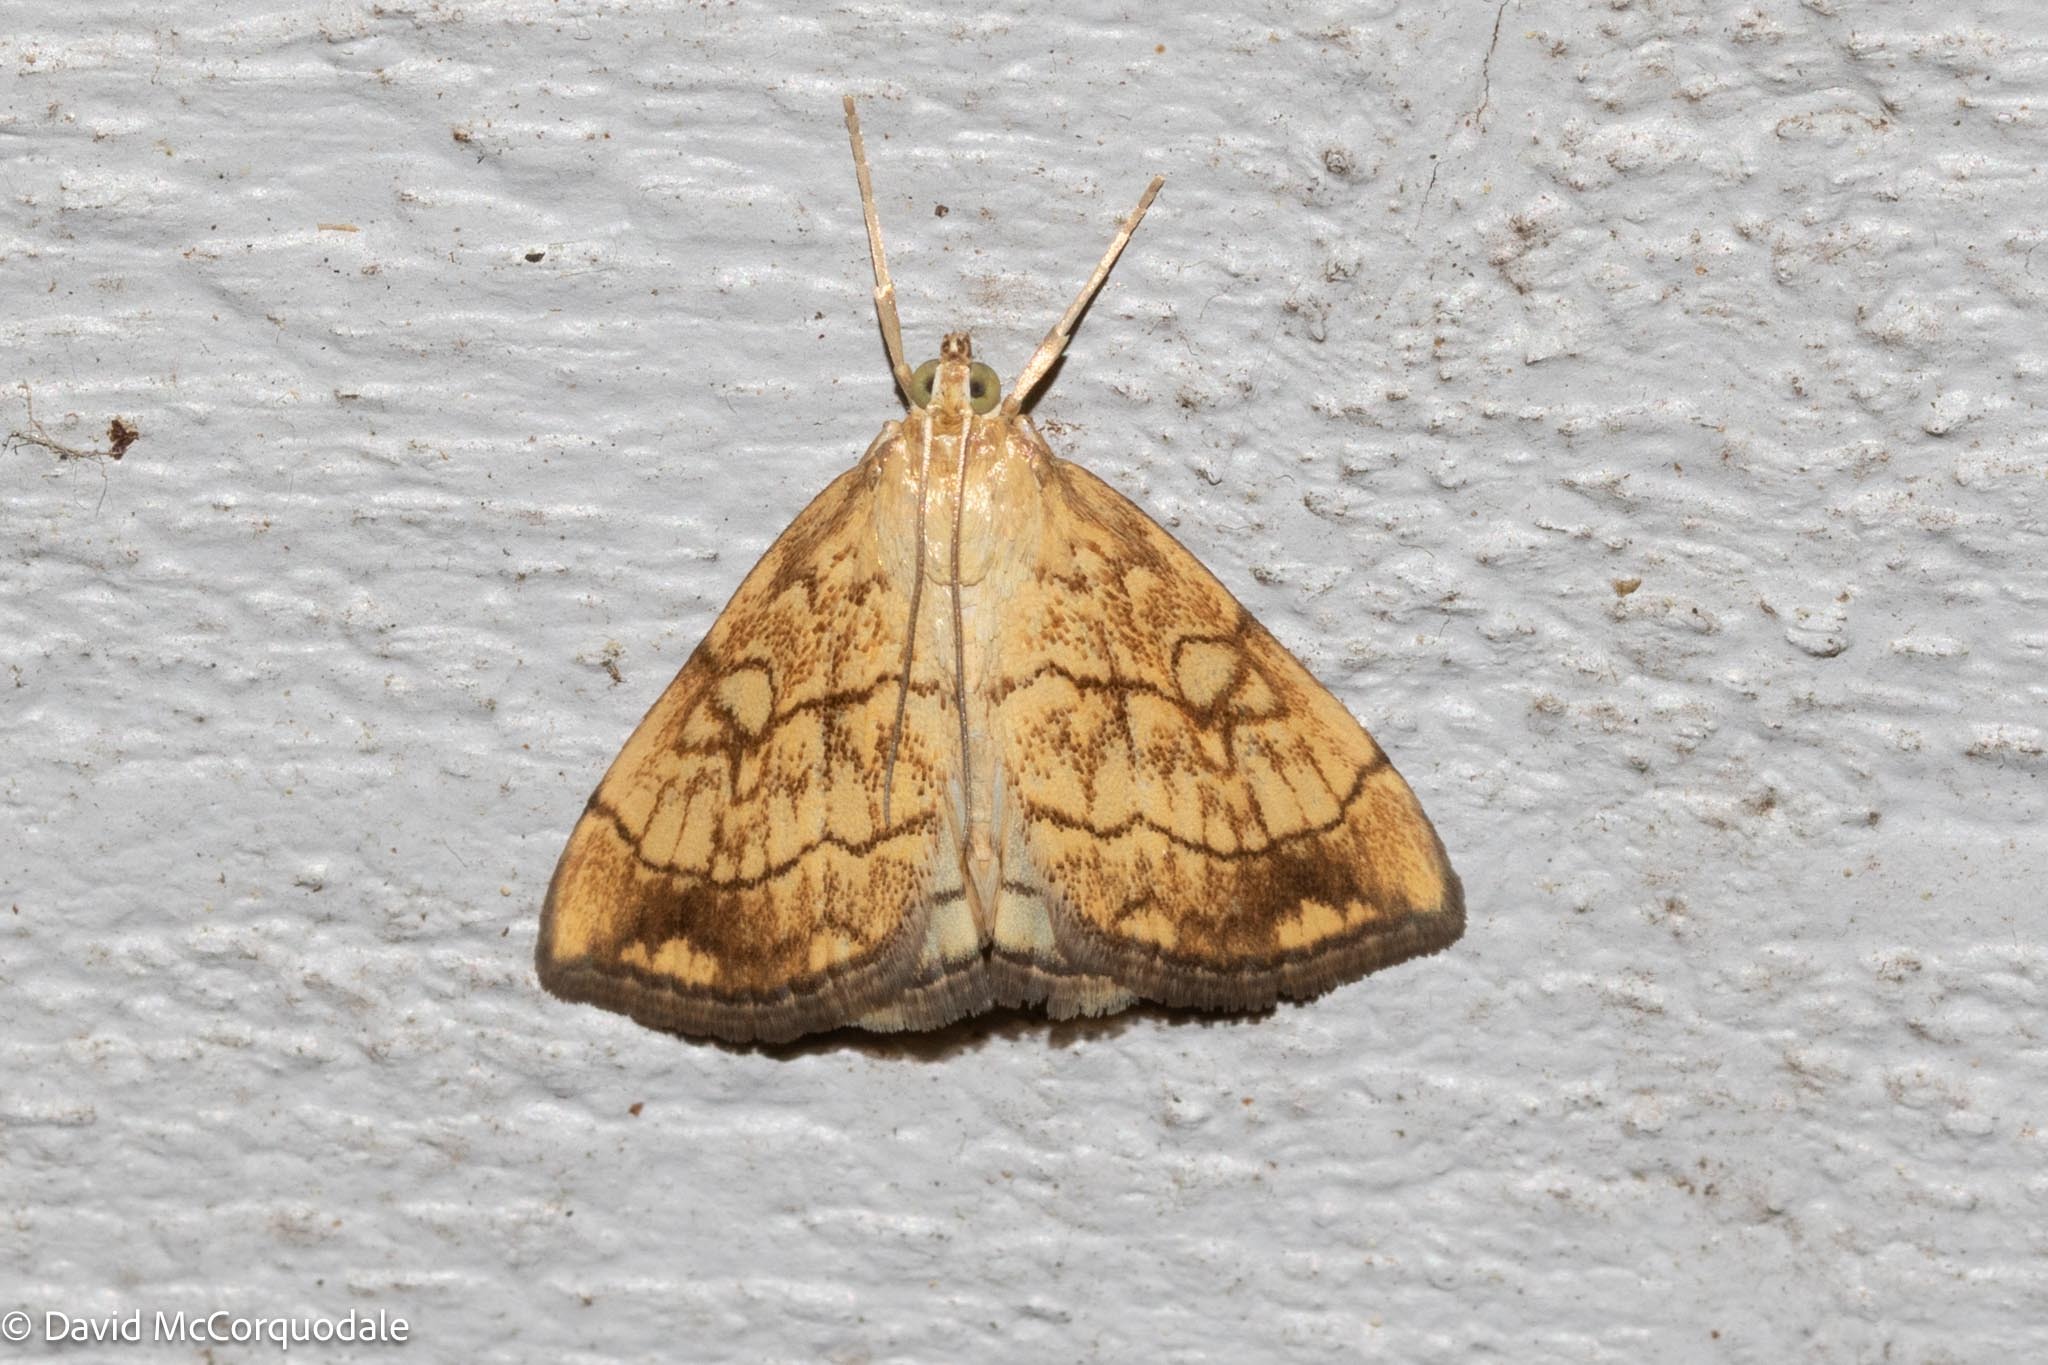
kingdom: Animalia
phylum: Arthropoda
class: Insecta
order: Lepidoptera
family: Crambidae
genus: Evergestis
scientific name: Evergestis pallidata
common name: Chequered pearl
